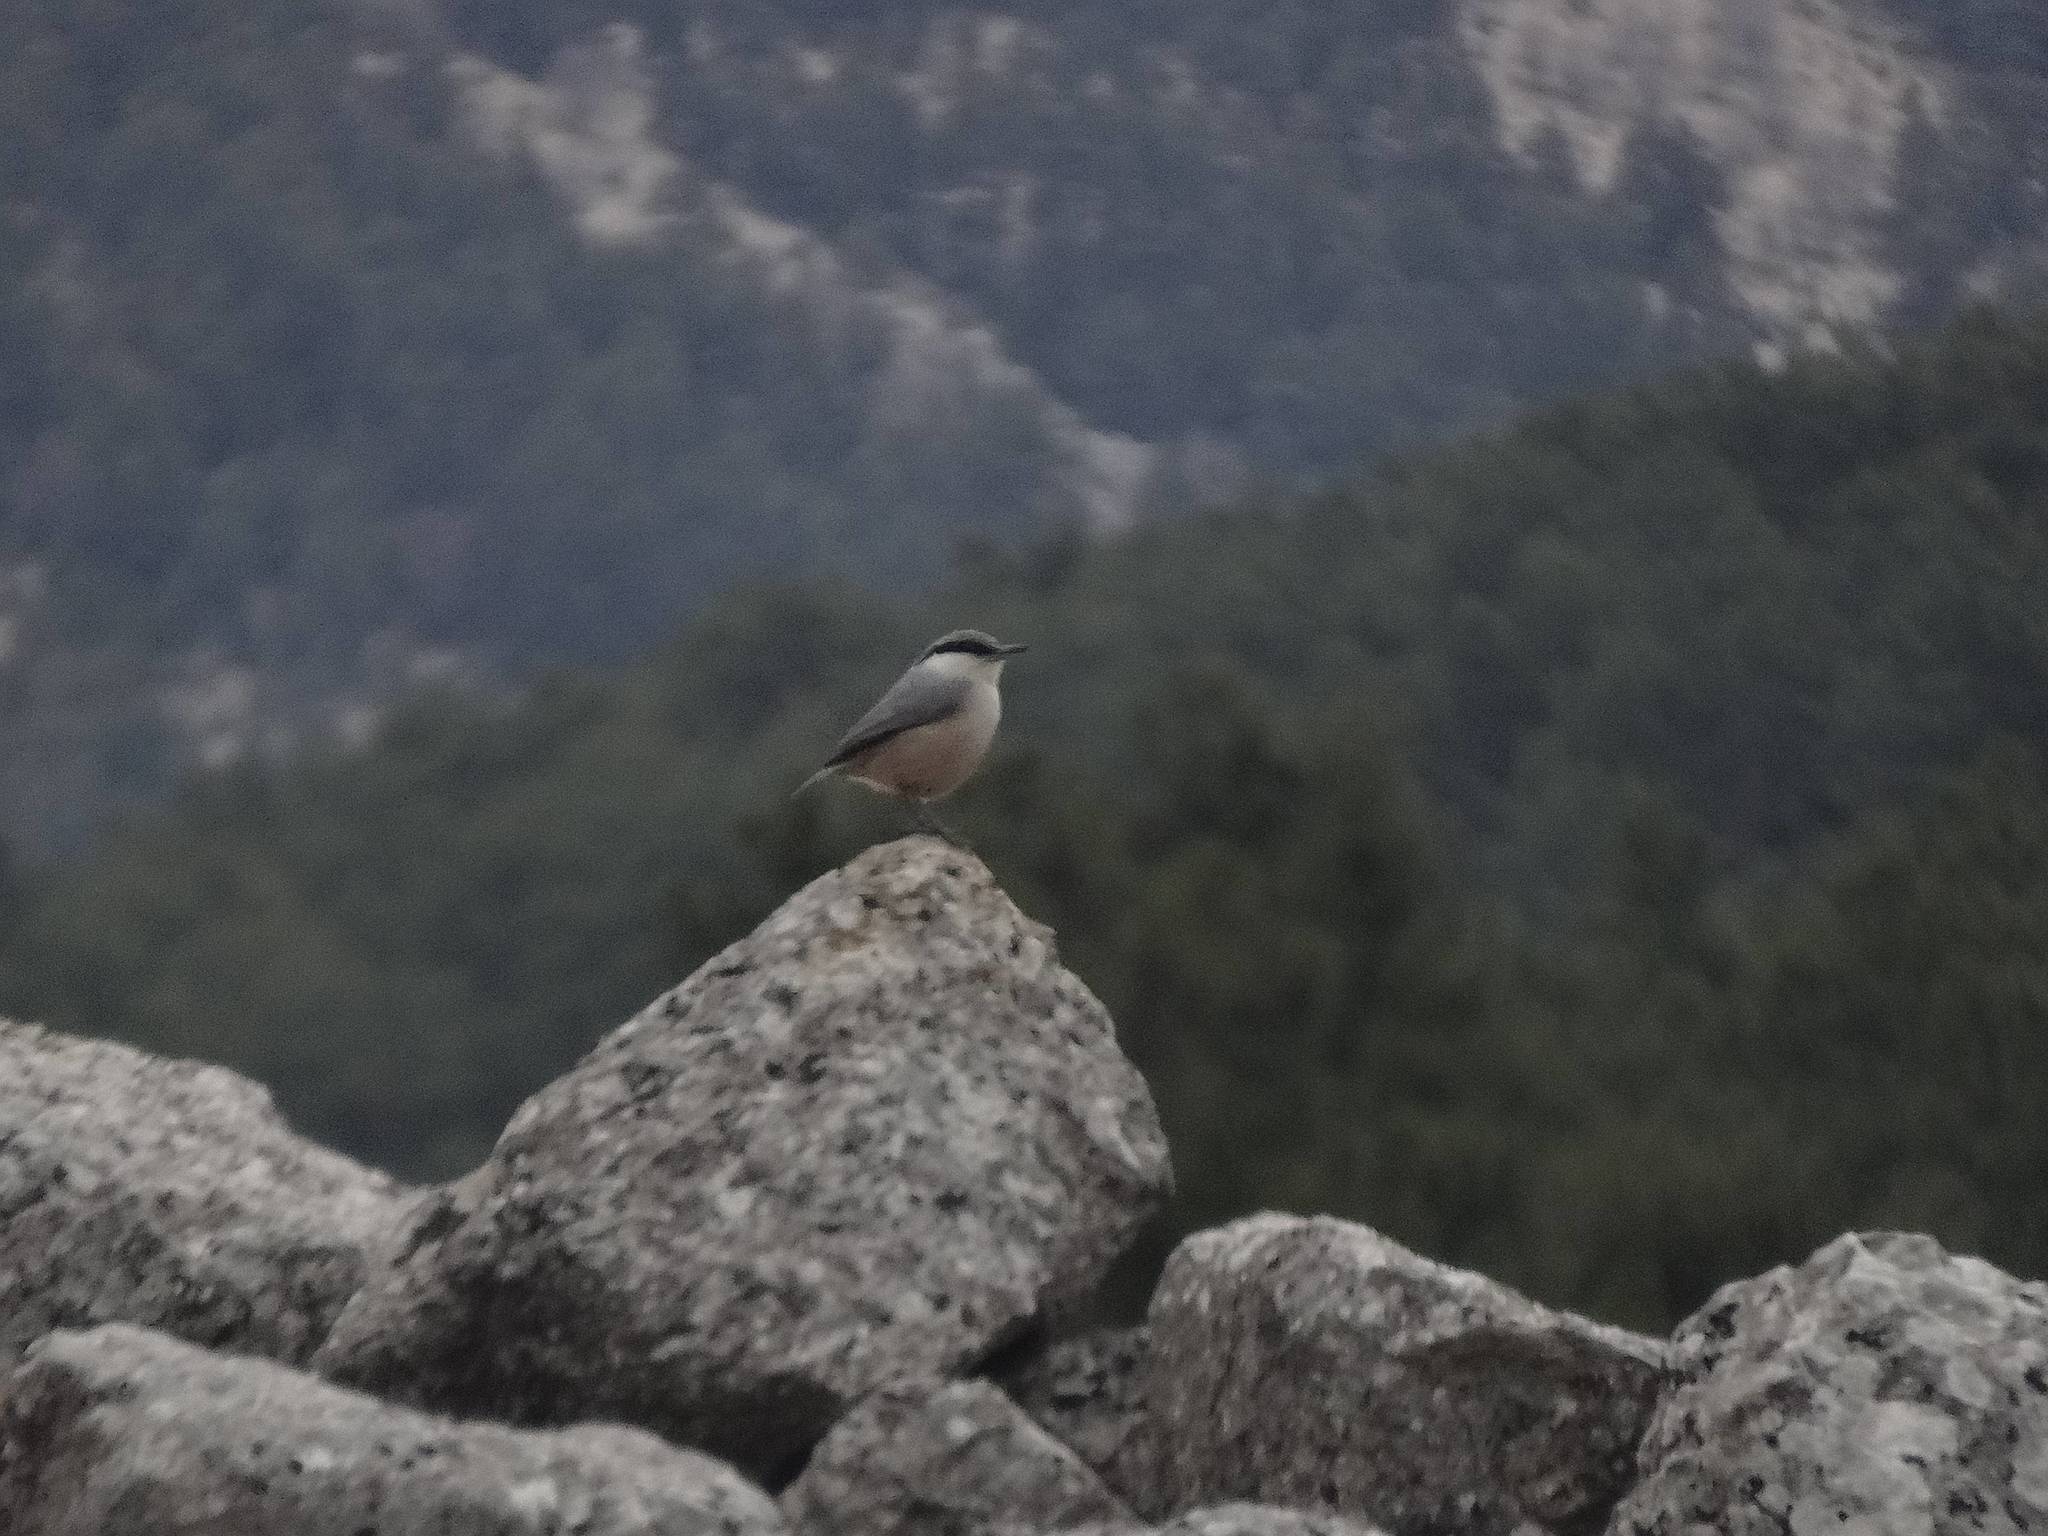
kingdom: Animalia
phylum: Chordata
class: Aves
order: Passeriformes
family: Sittidae
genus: Sitta
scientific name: Sitta neumayer
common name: Western rock nuthatch
